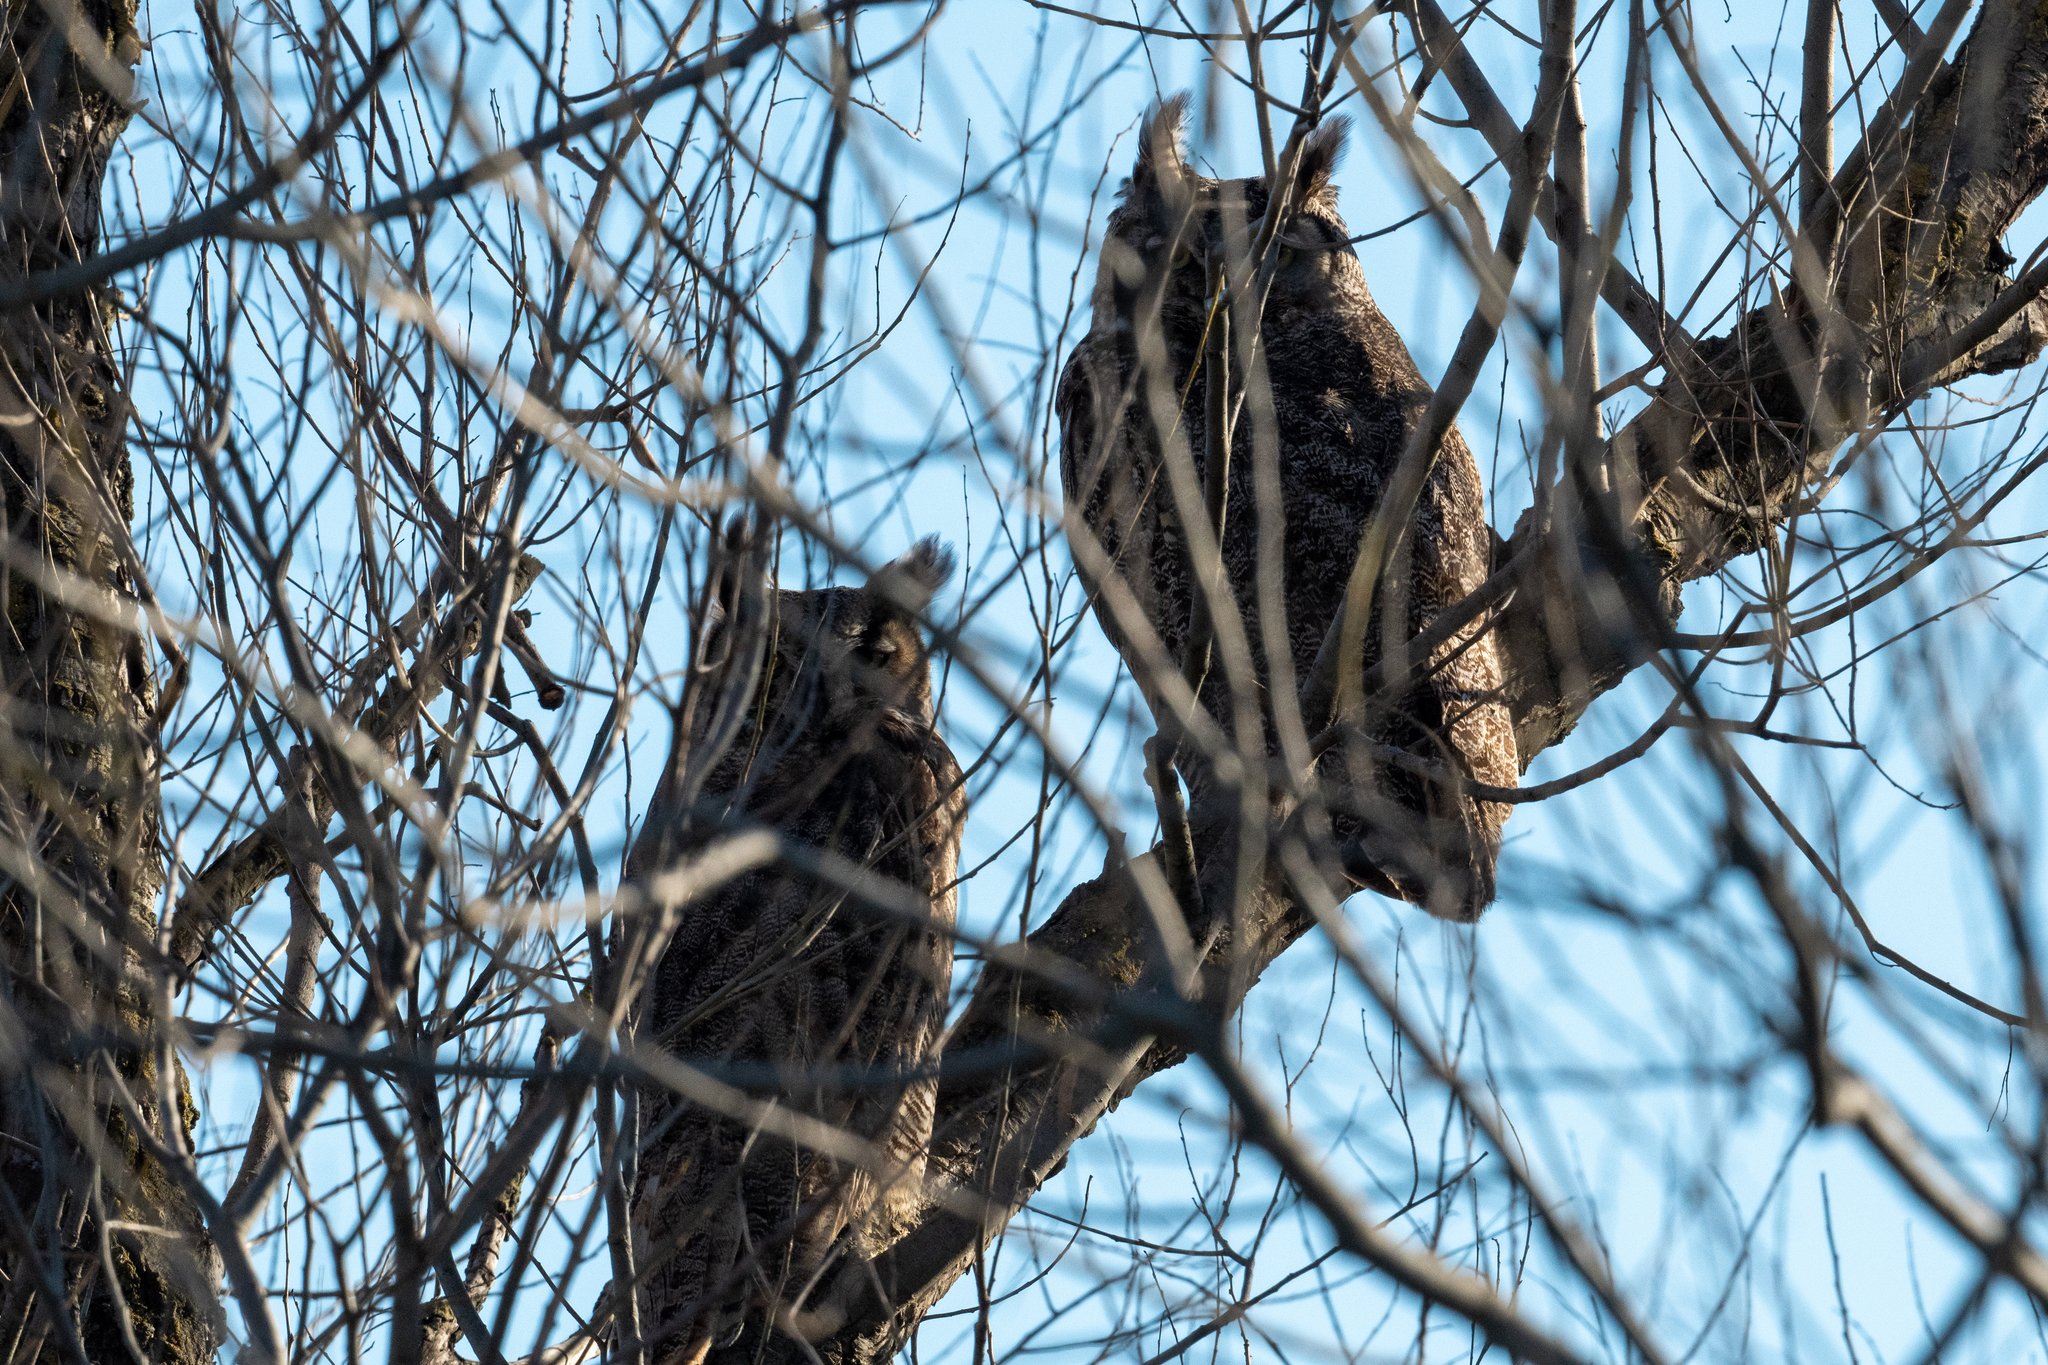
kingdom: Animalia
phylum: Chordata
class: Aves
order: Strigiformes
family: Strigidae
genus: Bubo
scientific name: Bubo virginianus
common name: Great horned owl
